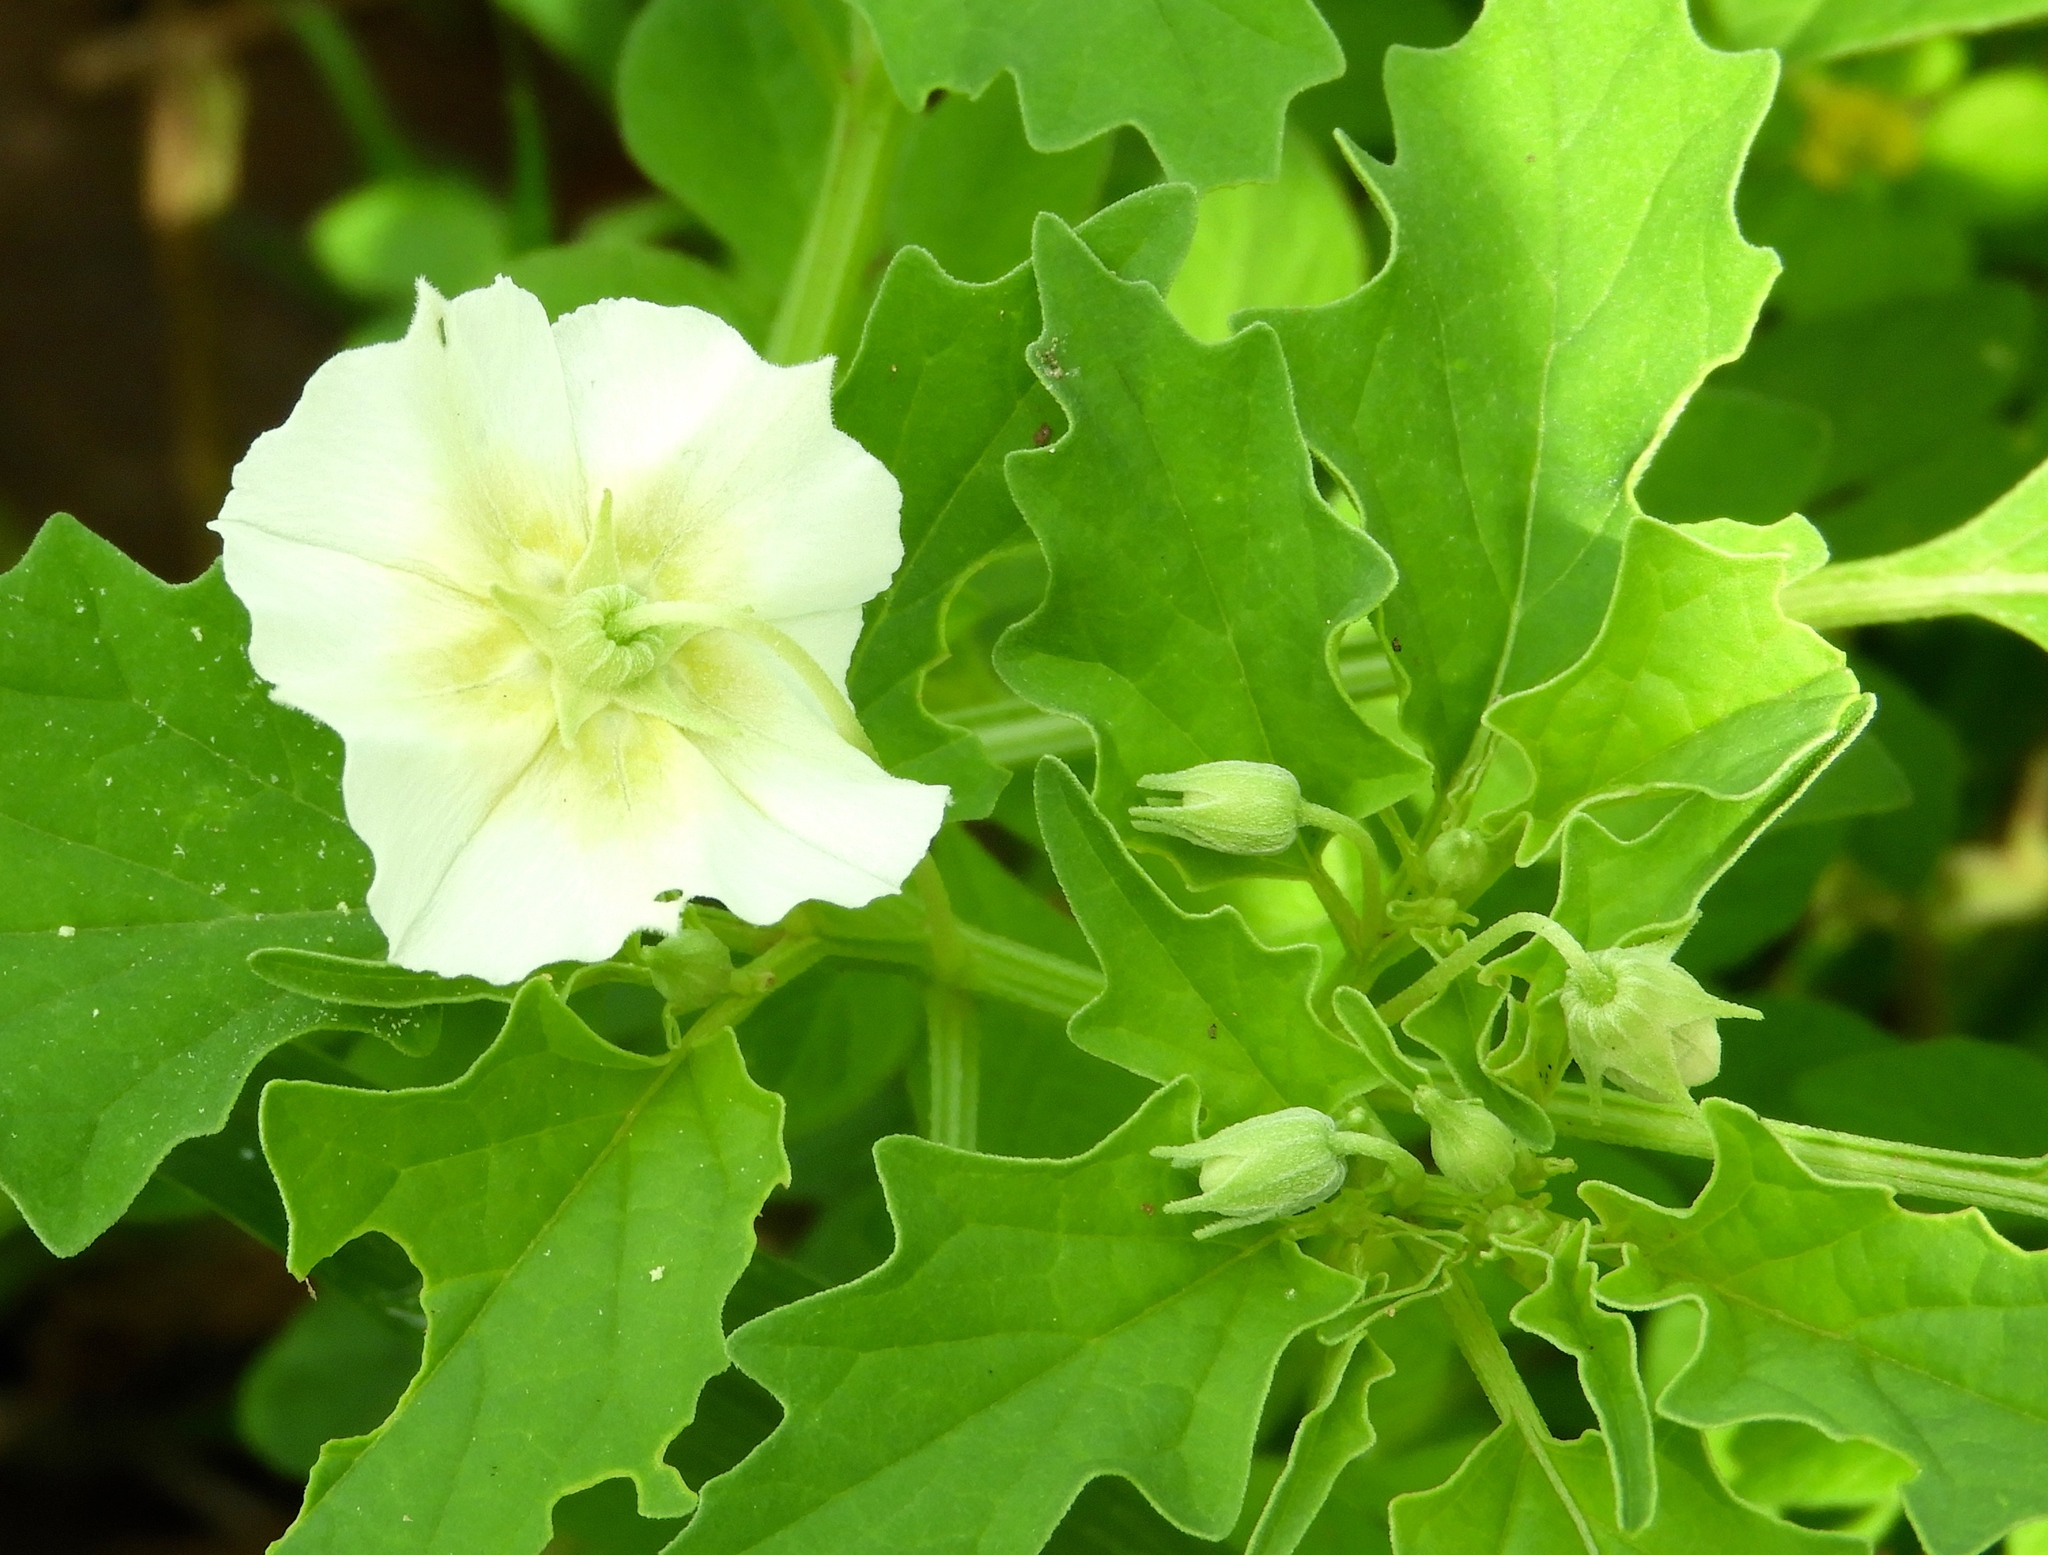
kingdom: Plantae
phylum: Tracheophyta
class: Magnoliopsida
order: Solanales
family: Solanaceae
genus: Physalis
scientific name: Physalis acutifolia
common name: Wright's ground-cherry
